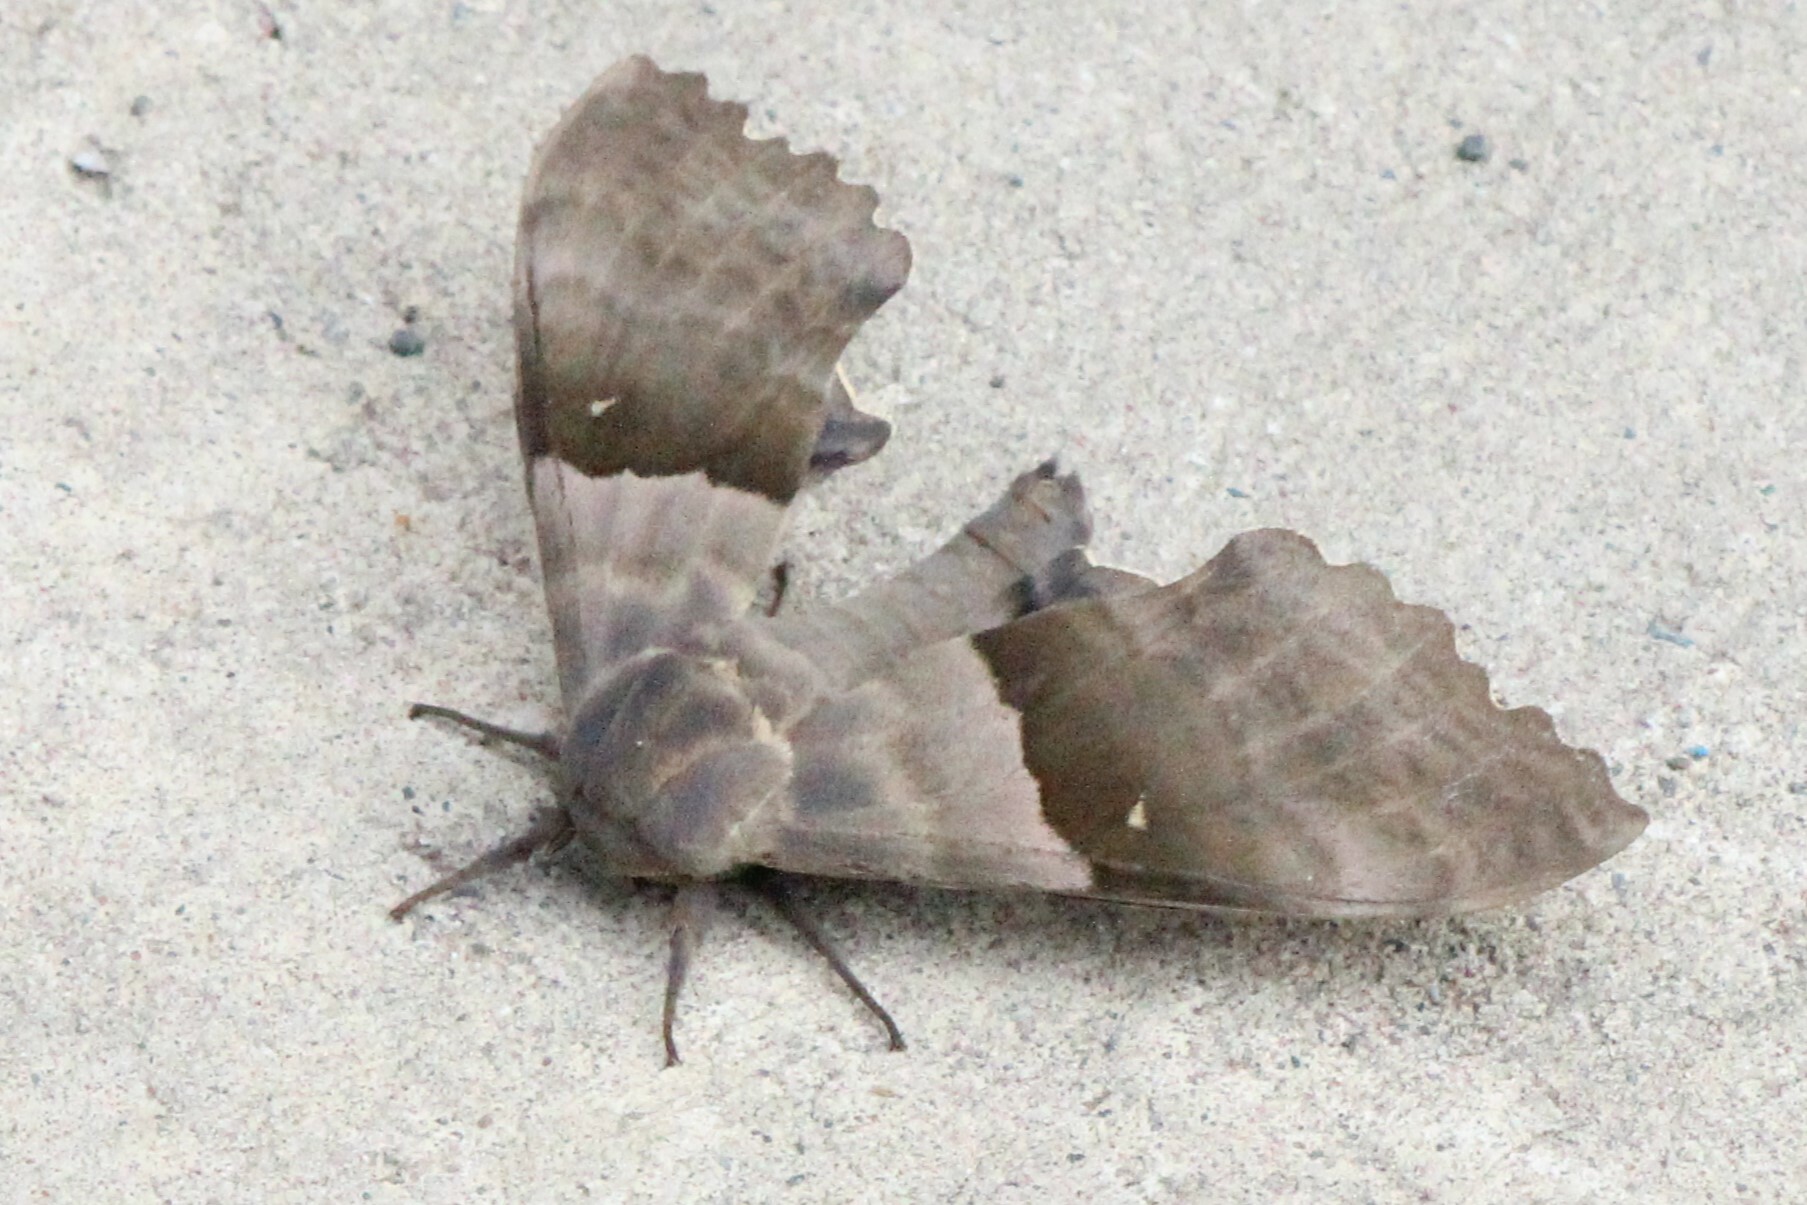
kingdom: Animalia
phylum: Arthropoda
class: Insecta
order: Lepidoptera
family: Sphingidae
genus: Pachysphinx
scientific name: Pachysphinx modesta
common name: Big poplar sphinx
